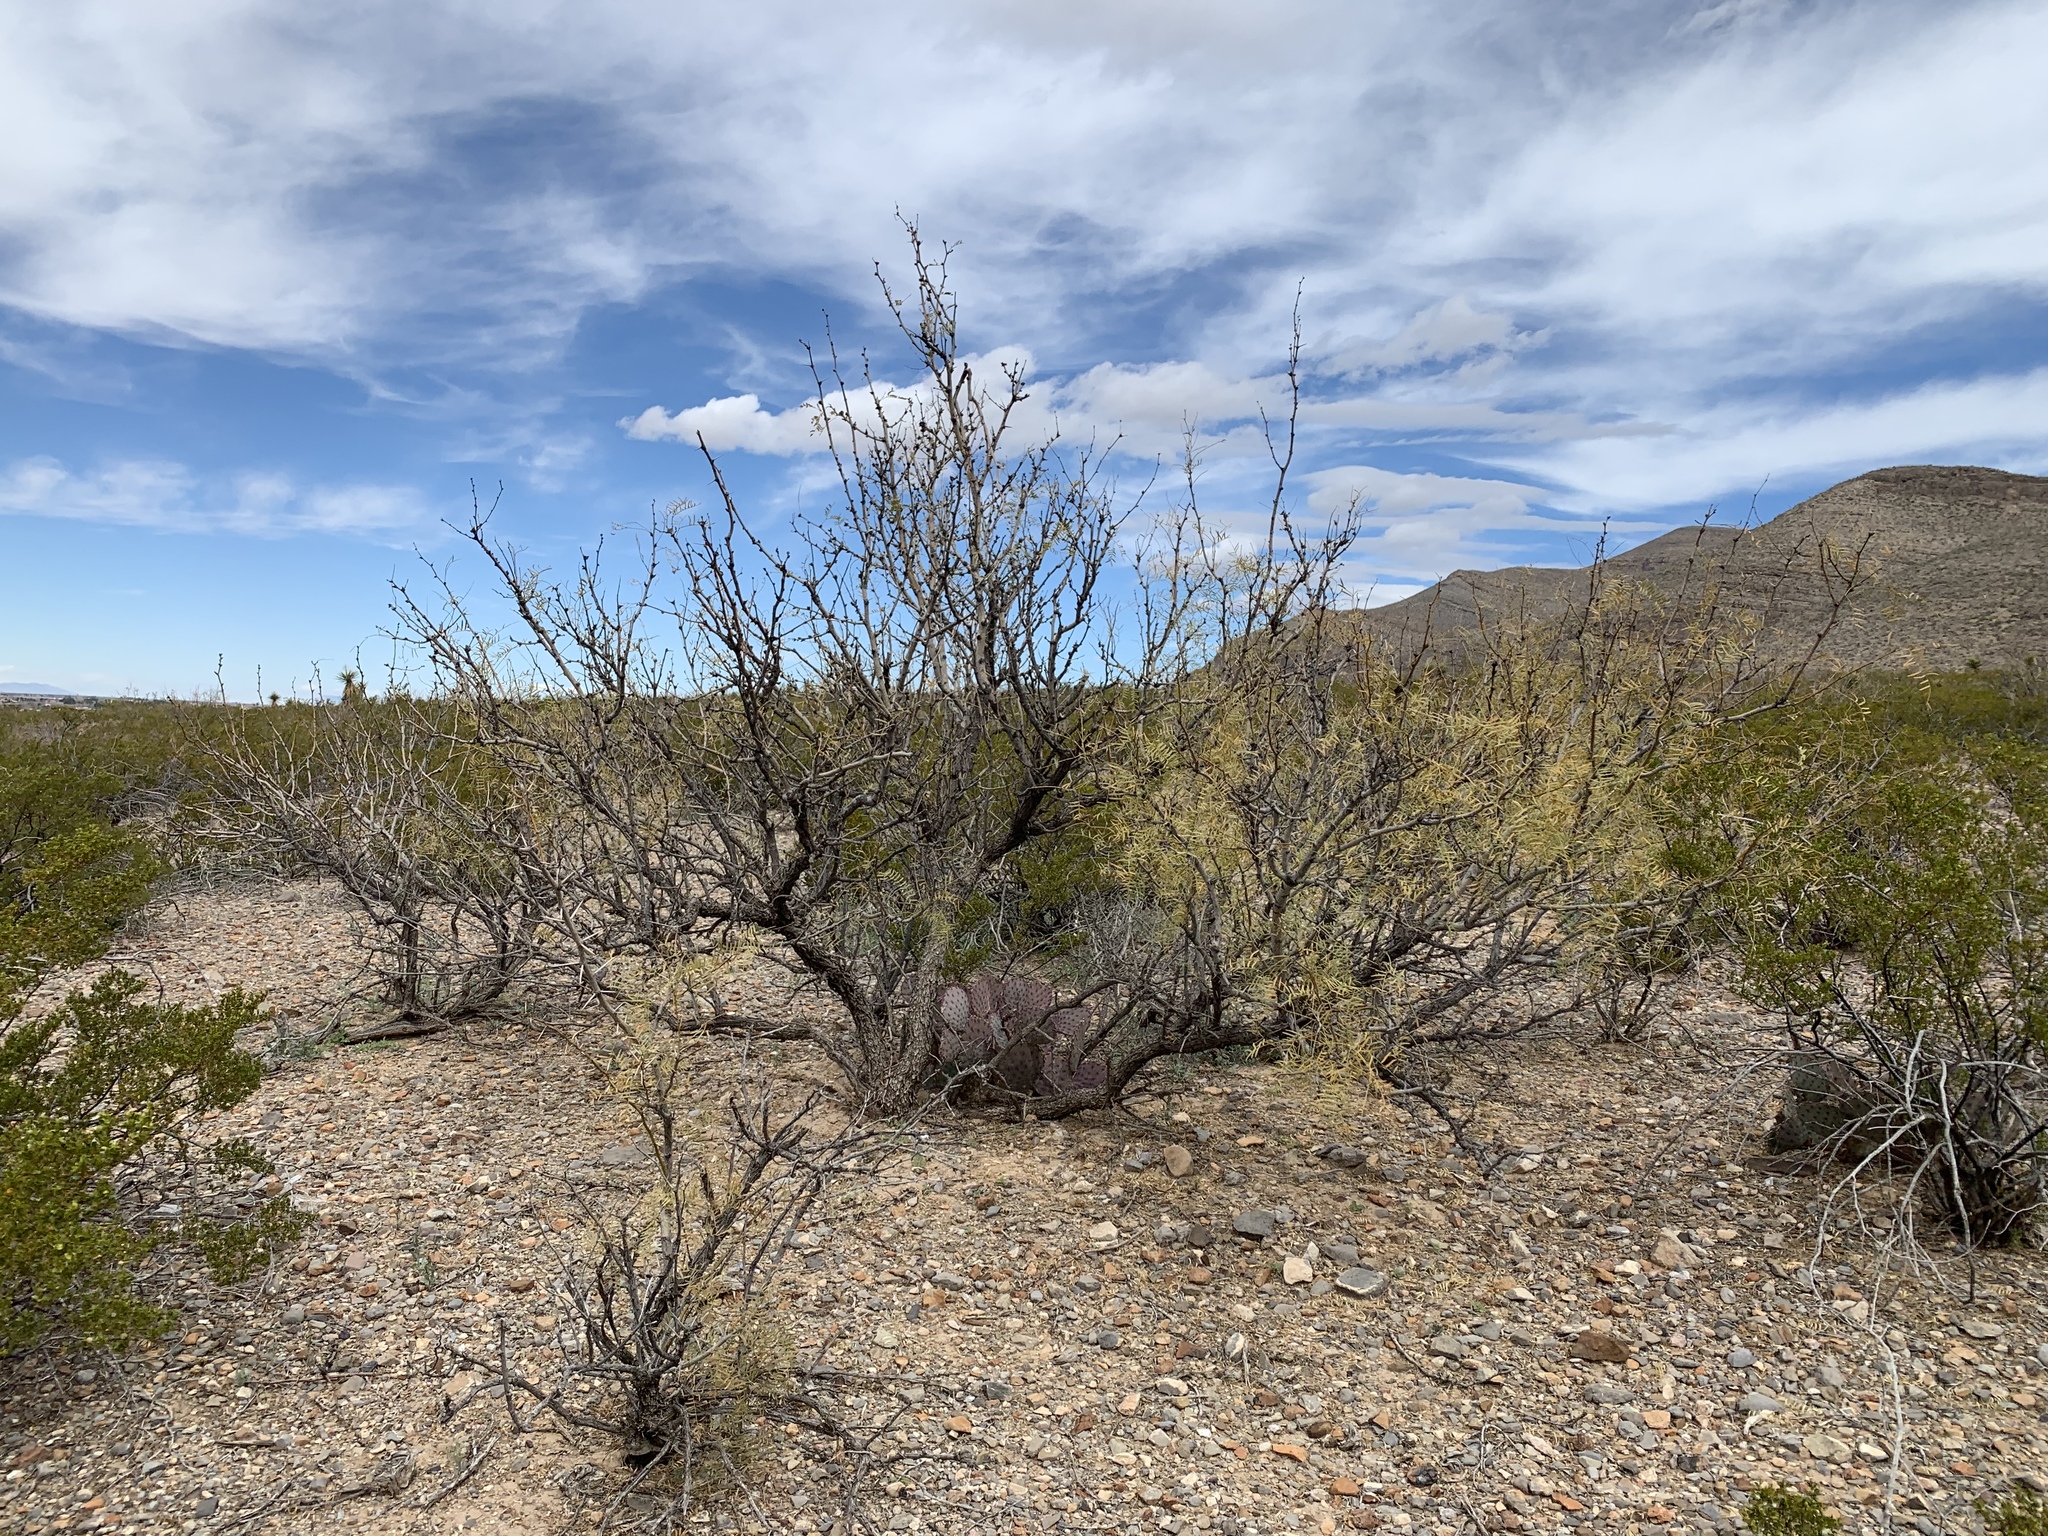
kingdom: Plantae
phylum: Tracheophyta
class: Magnoliopsida
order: Fabales
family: Fabaceae
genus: Prosopis
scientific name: Prosopis glandulosa
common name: Honey mesquite
